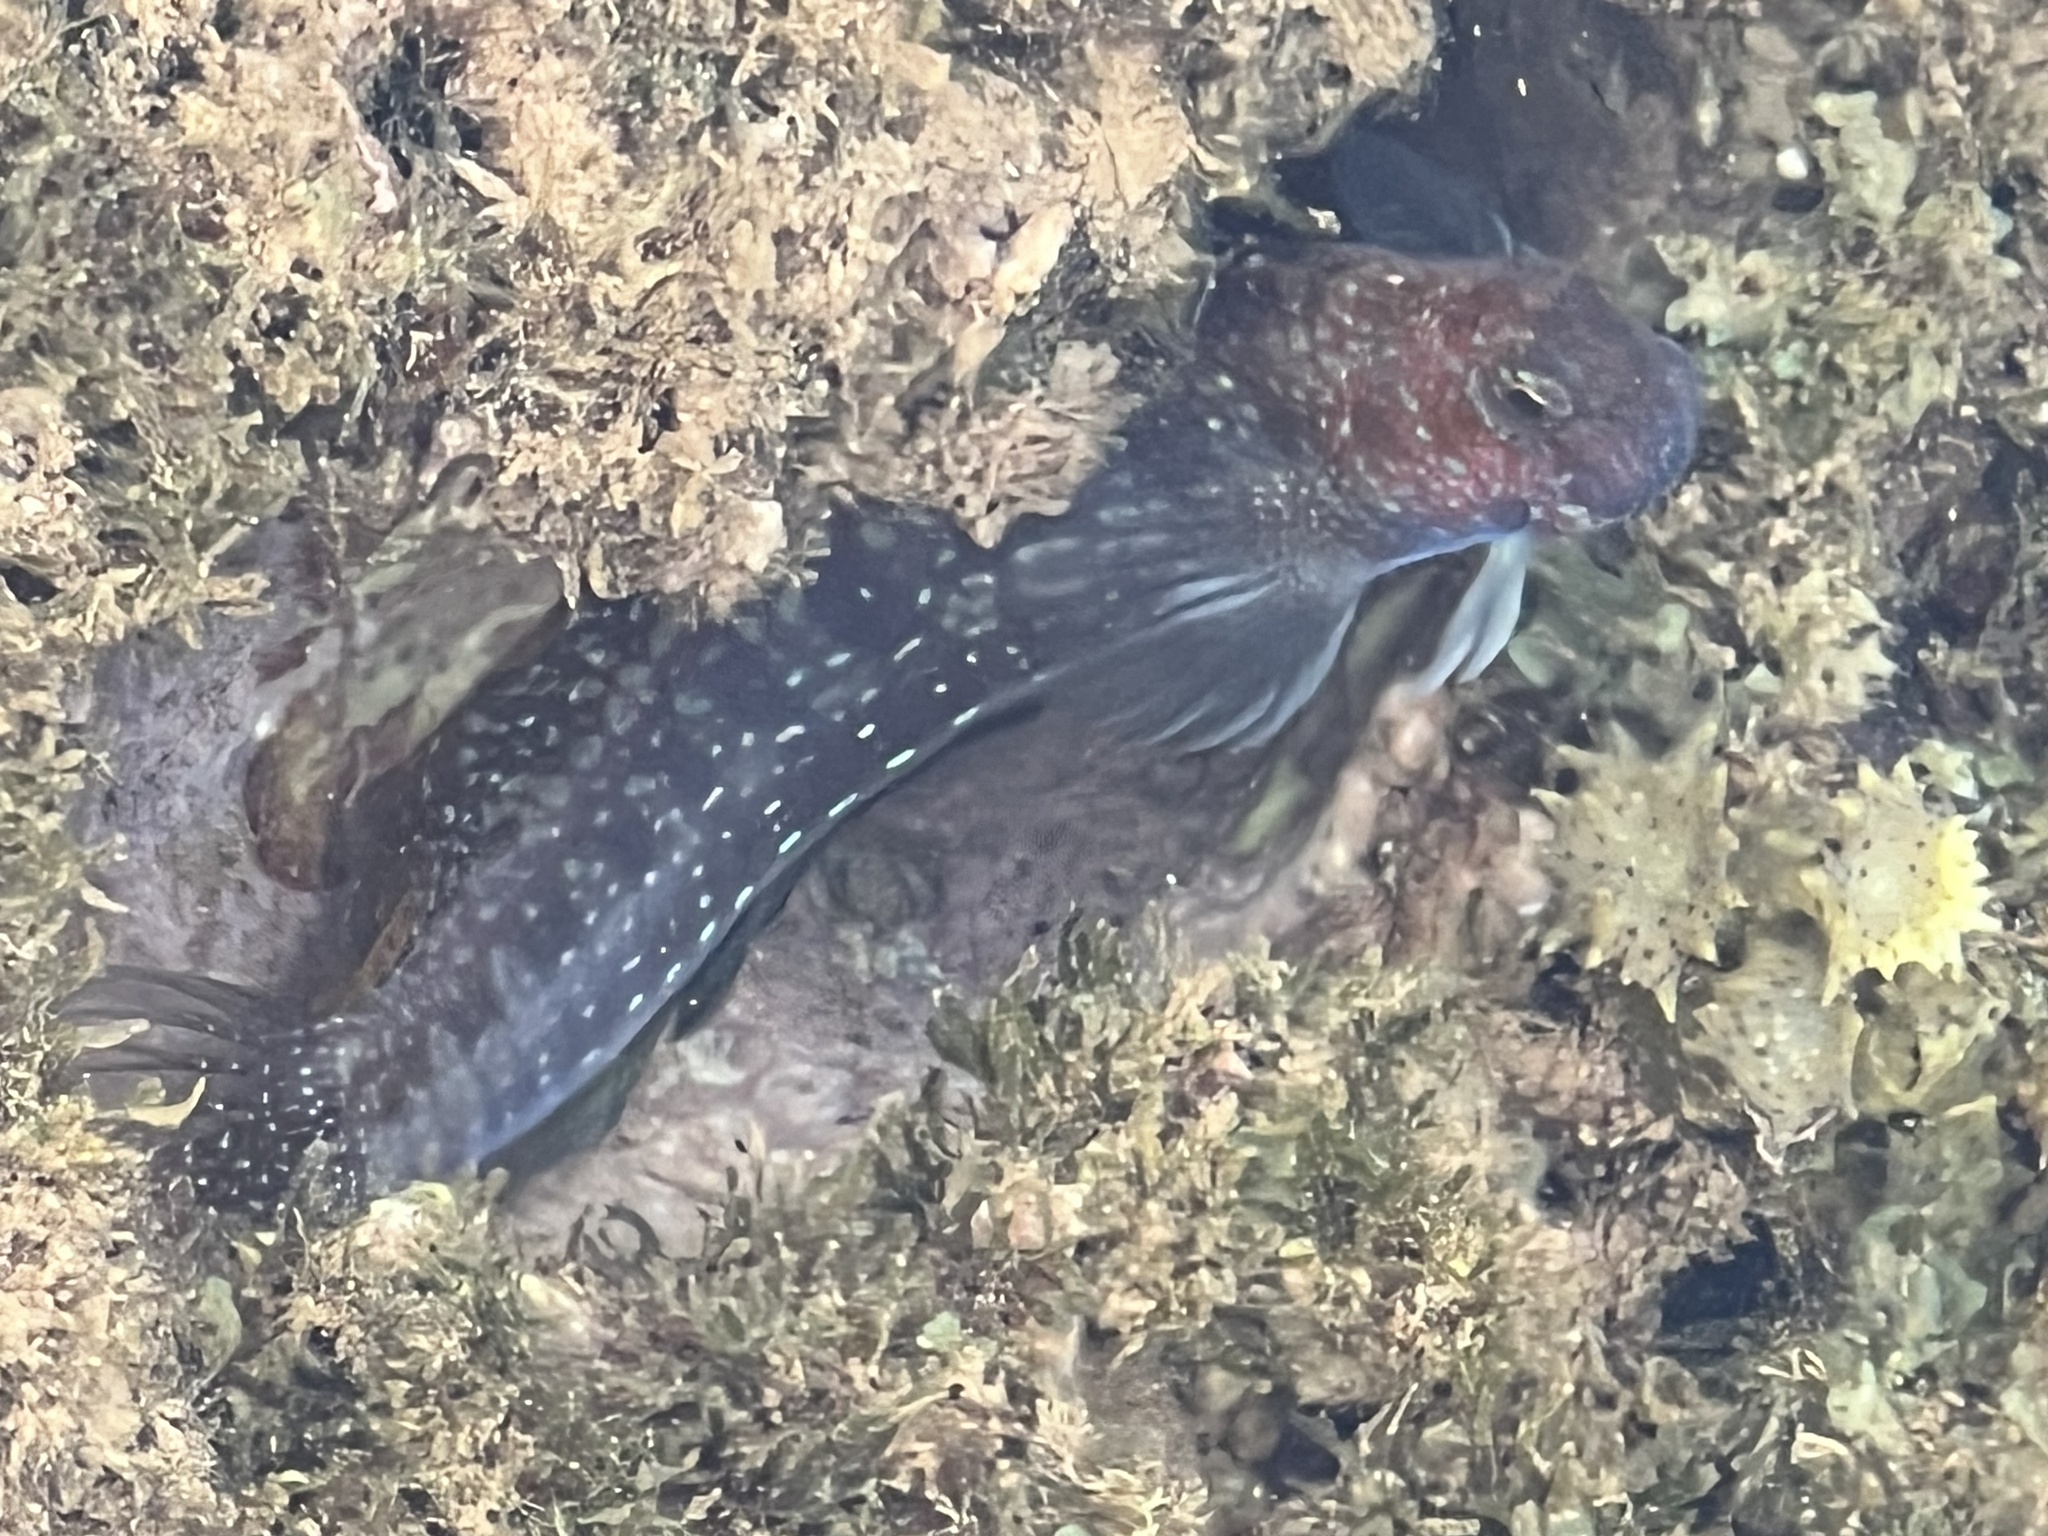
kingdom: Animalia
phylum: Chordata
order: Perciformes
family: Blenniidae
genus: Blenniella
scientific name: Blenniella gibbifrons
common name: Picture rockskipper
